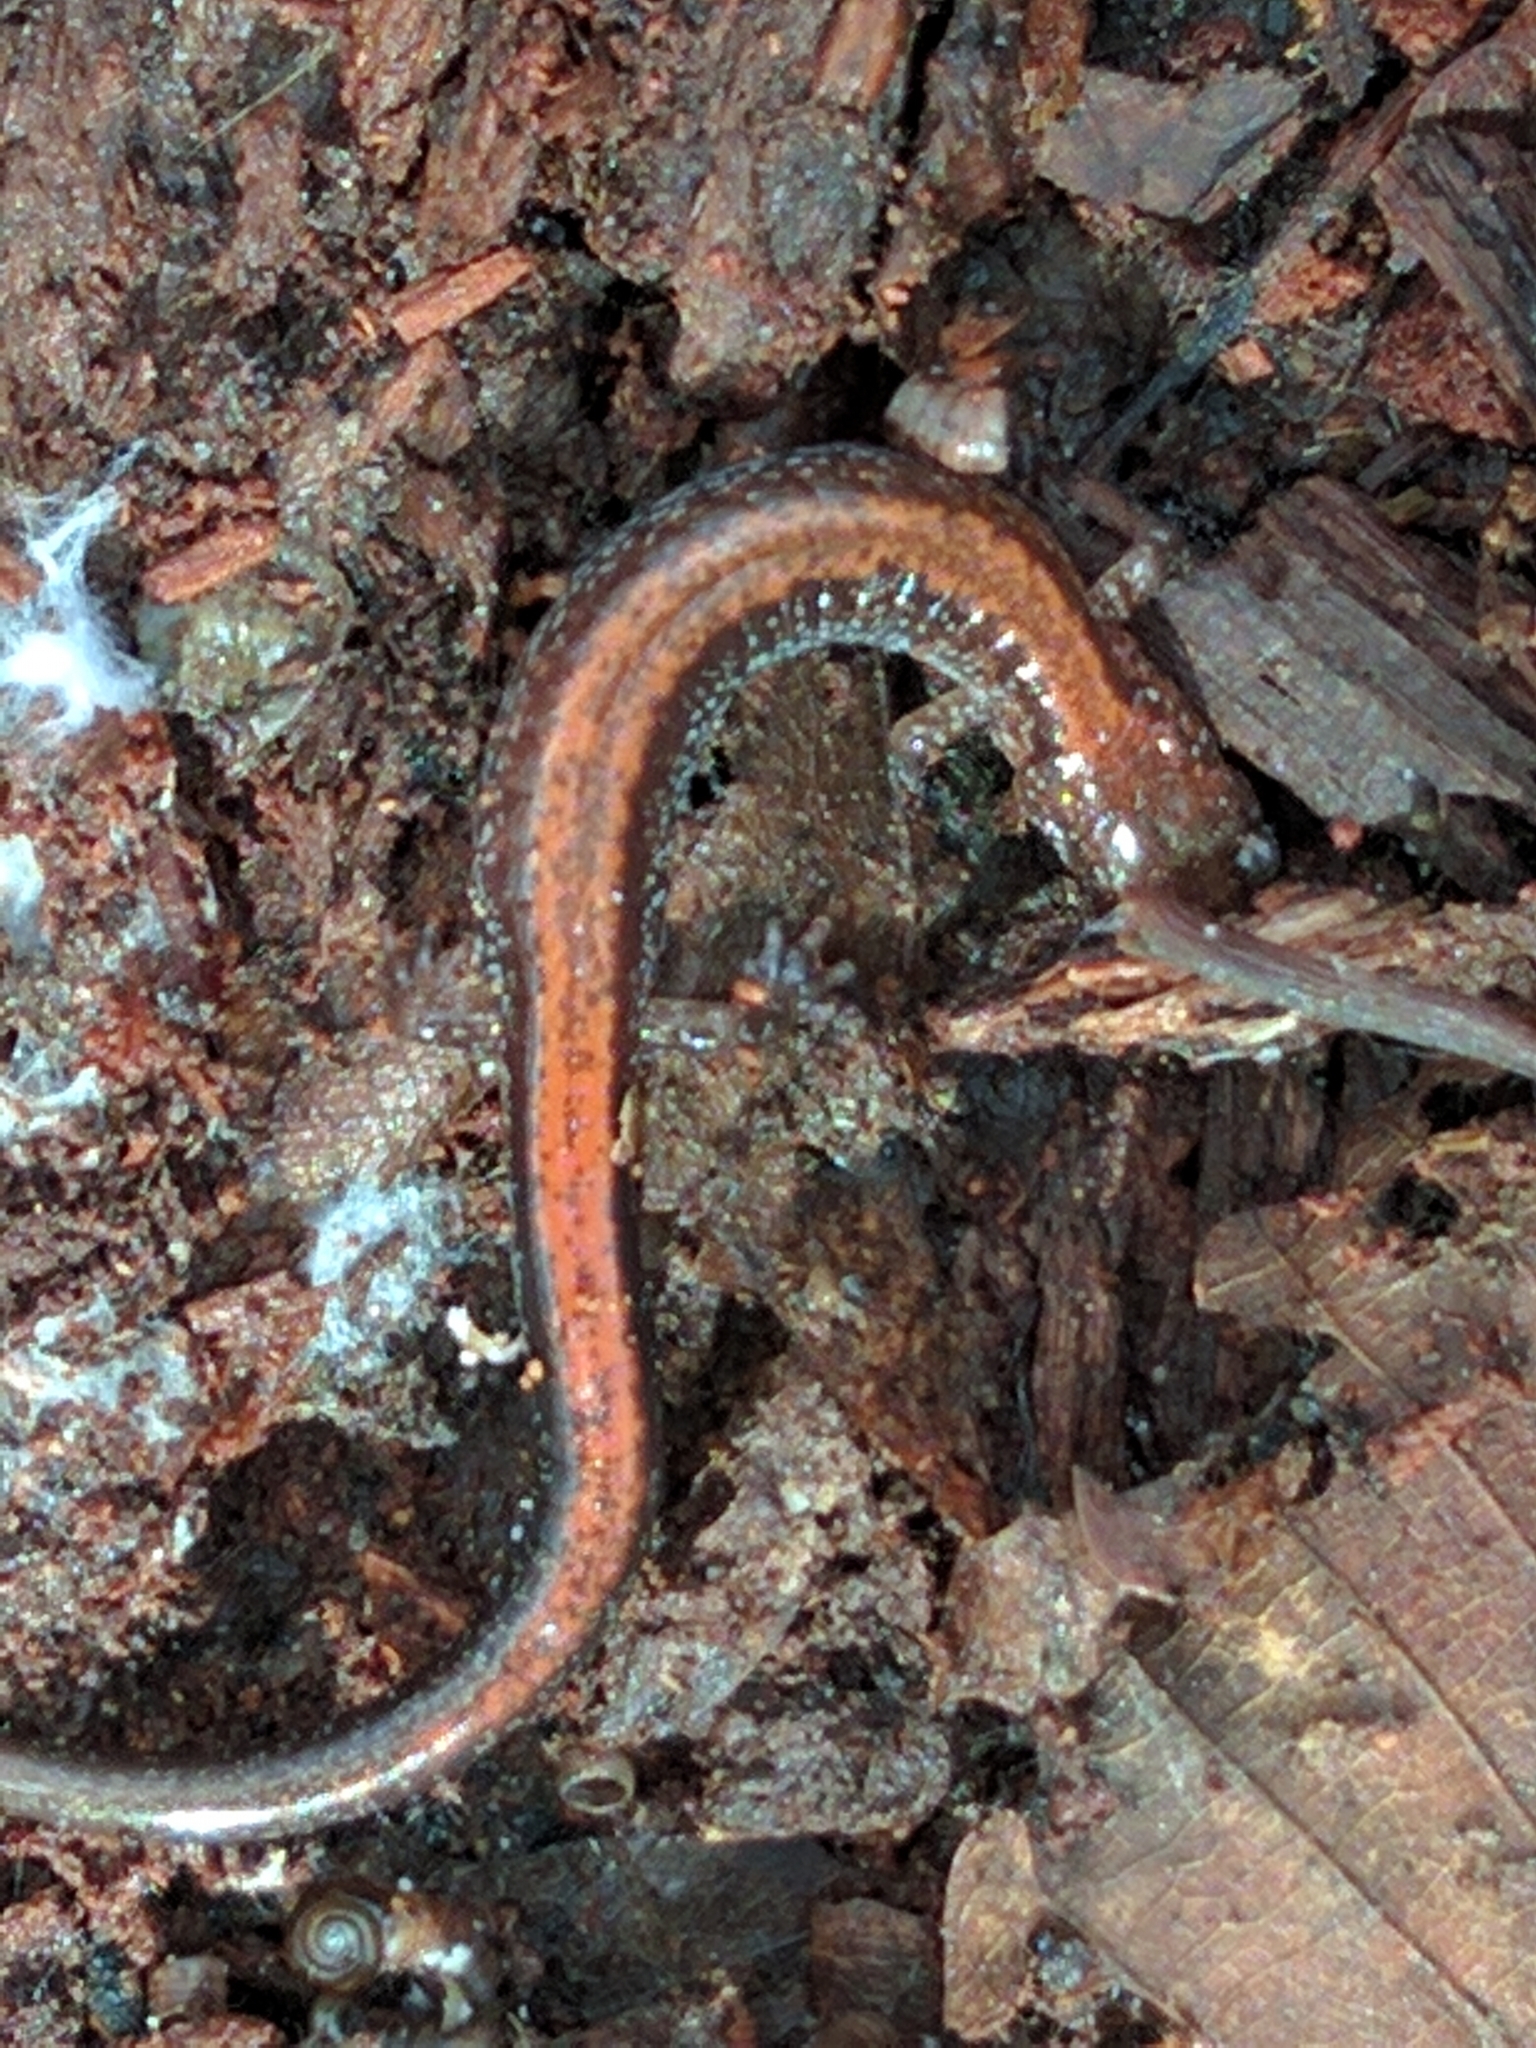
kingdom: Animalia
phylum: Chordata
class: Amphibia
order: Caudata
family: Plethodontidae
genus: Plethodon
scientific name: Plethodon cinereus
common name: Redback salamander
